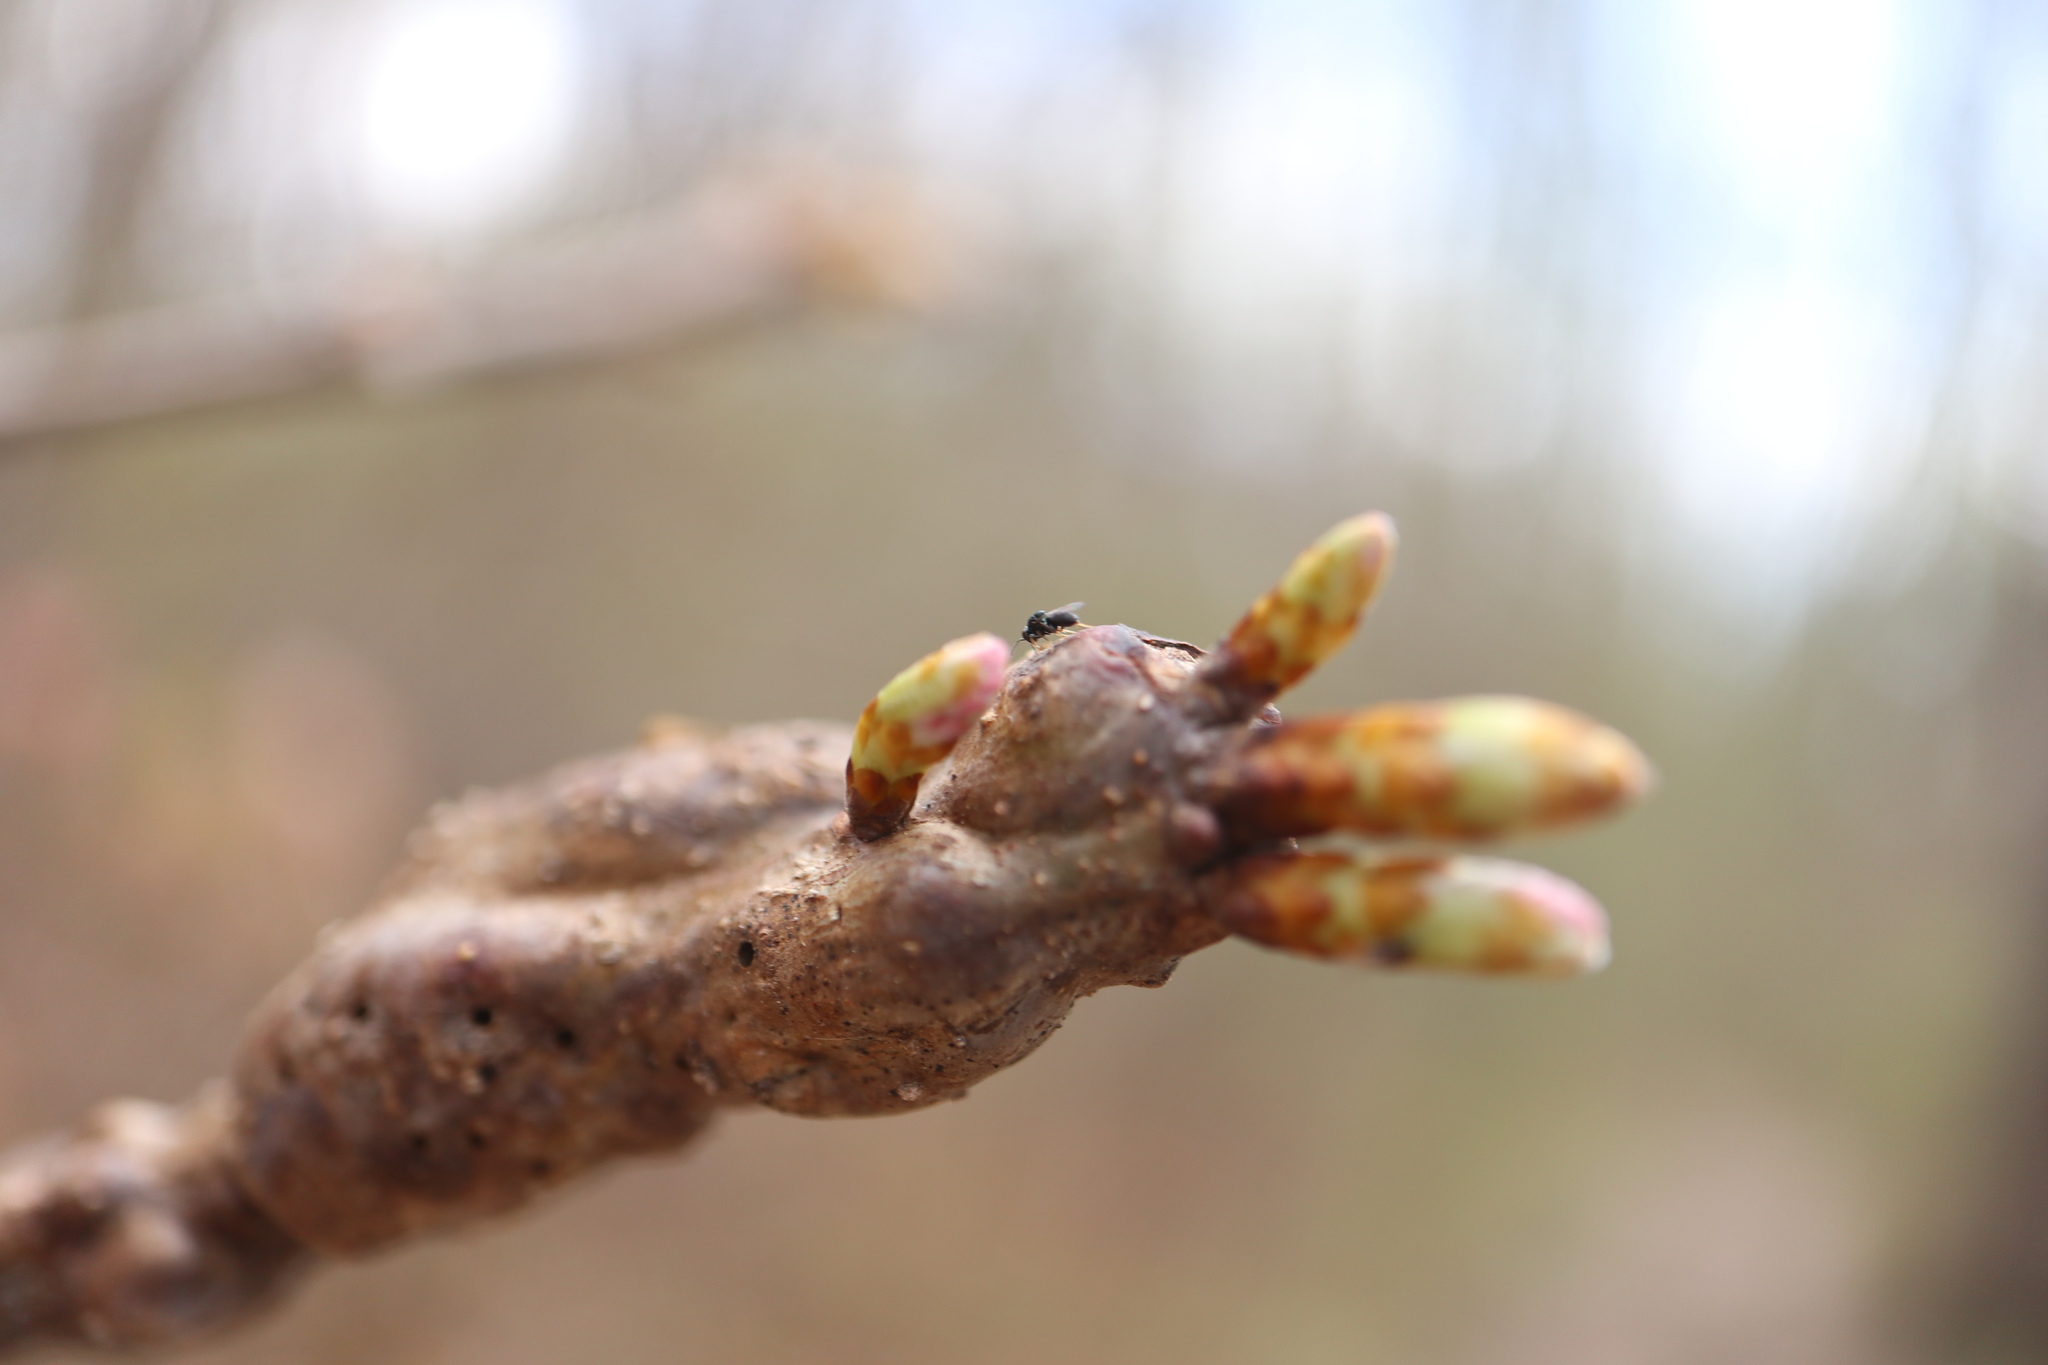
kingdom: Animalia
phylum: Arthropoda
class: Insecta
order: Hymenoptera
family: Cynipidae
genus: Neuroterus
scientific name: Neuroterus quercusbaccarum
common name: Common spangle gall
